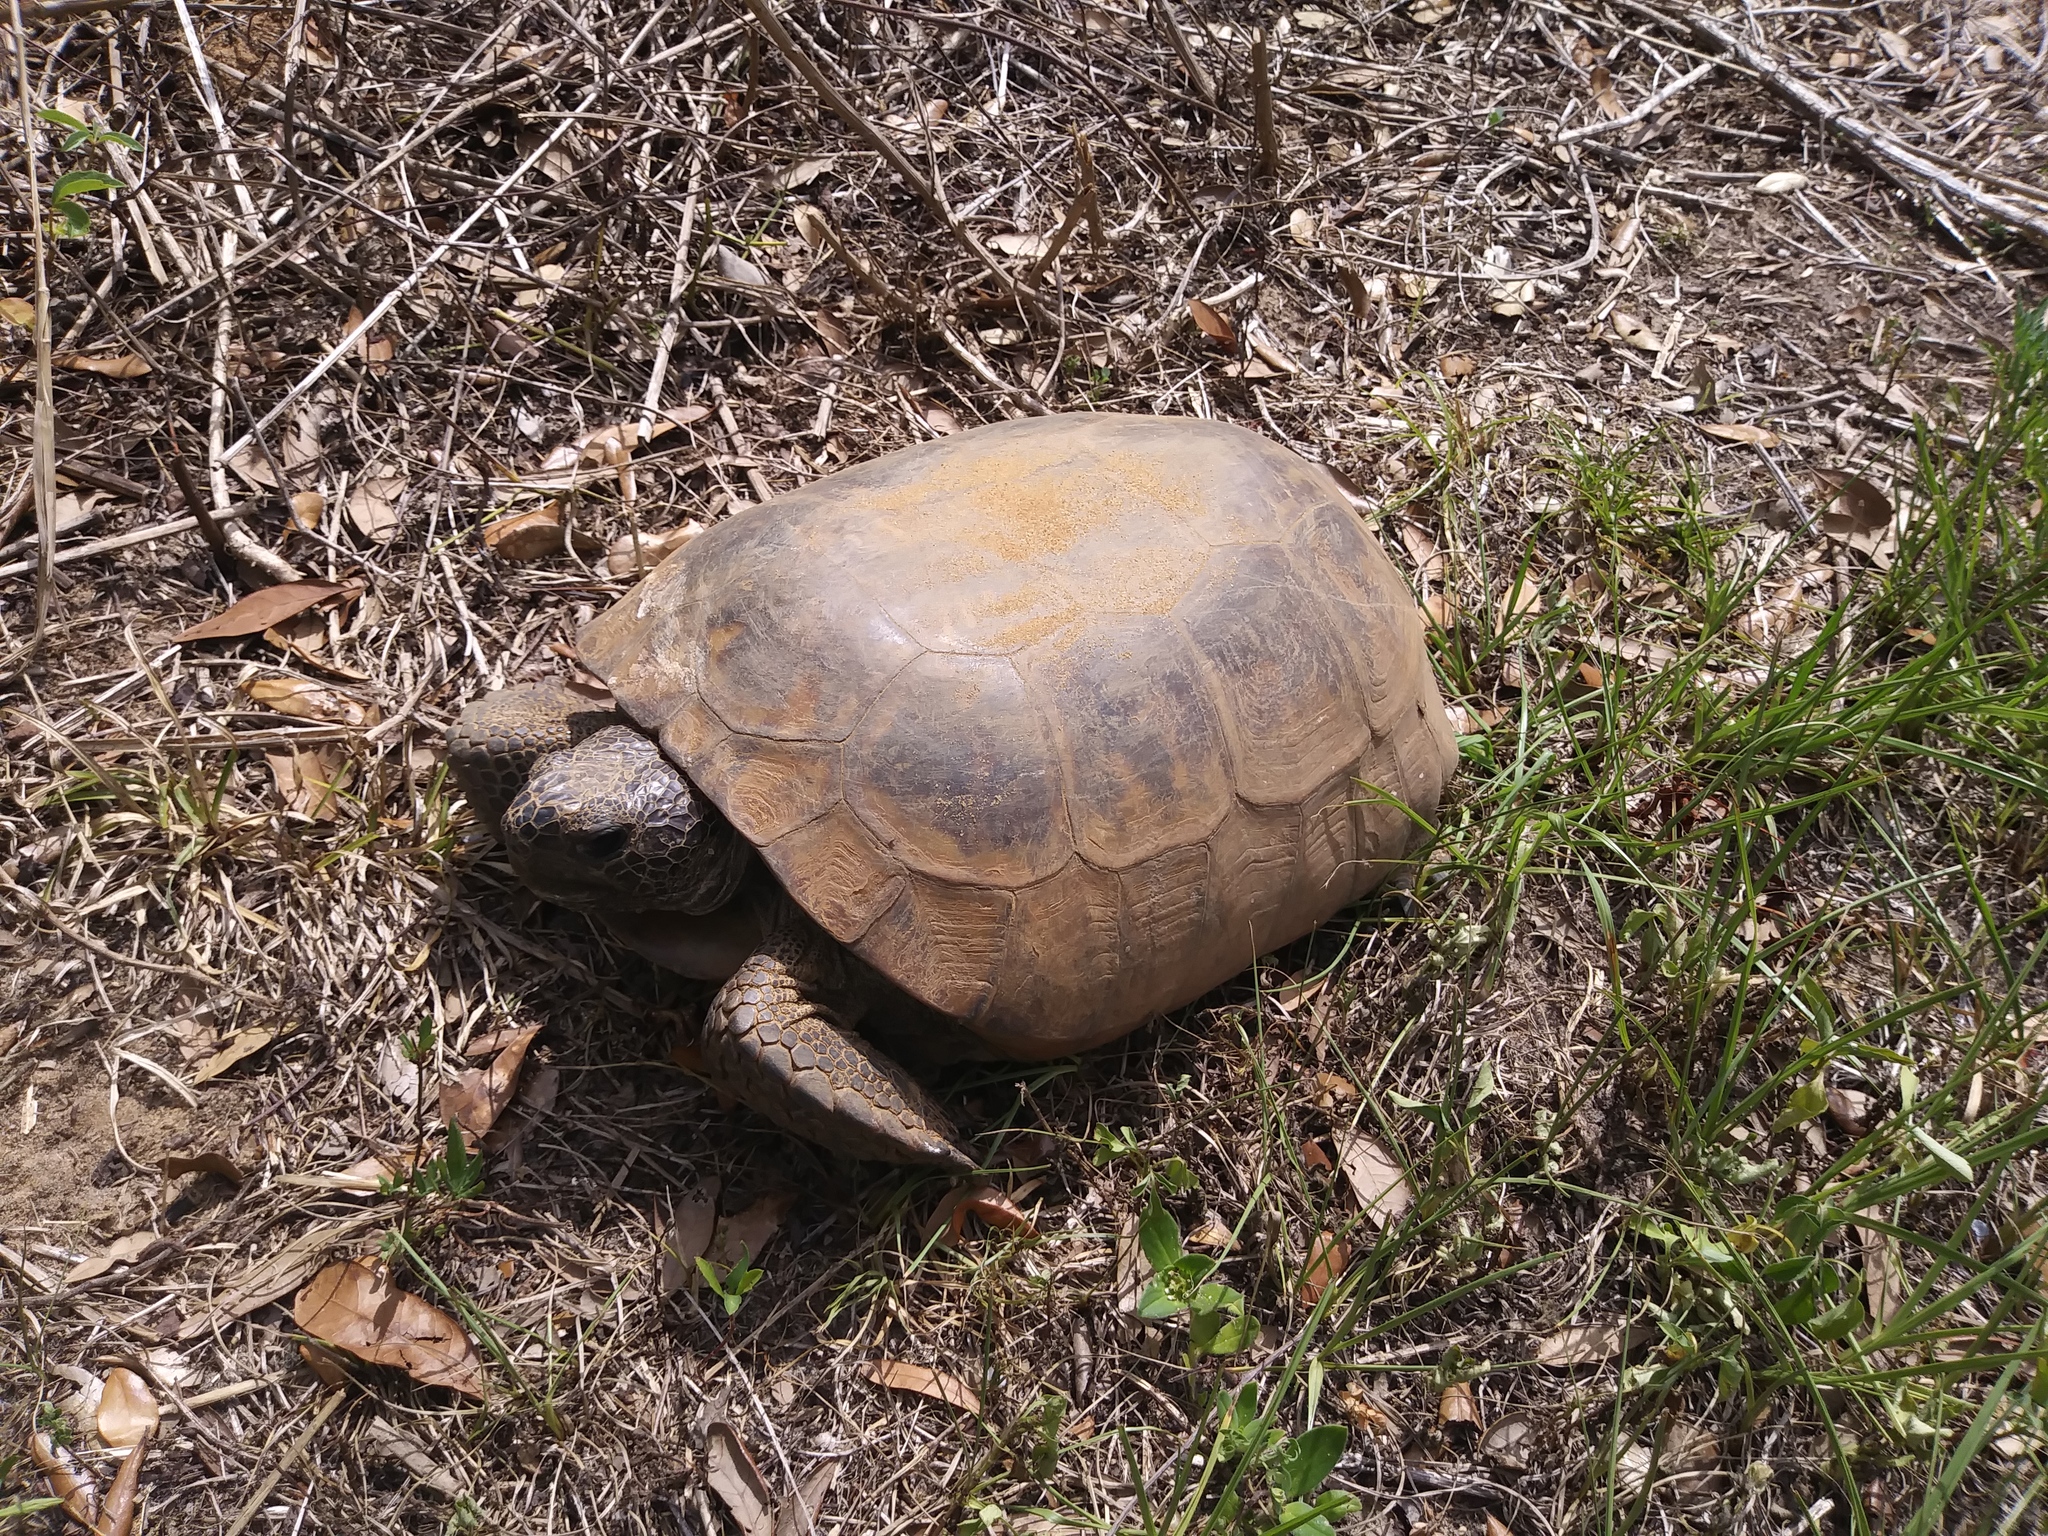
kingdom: Animalia
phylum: Chordata
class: Testudines
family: Testudinidae
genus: Gopherus
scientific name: Gopherus polyphemus
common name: Florida gopher tortoise
